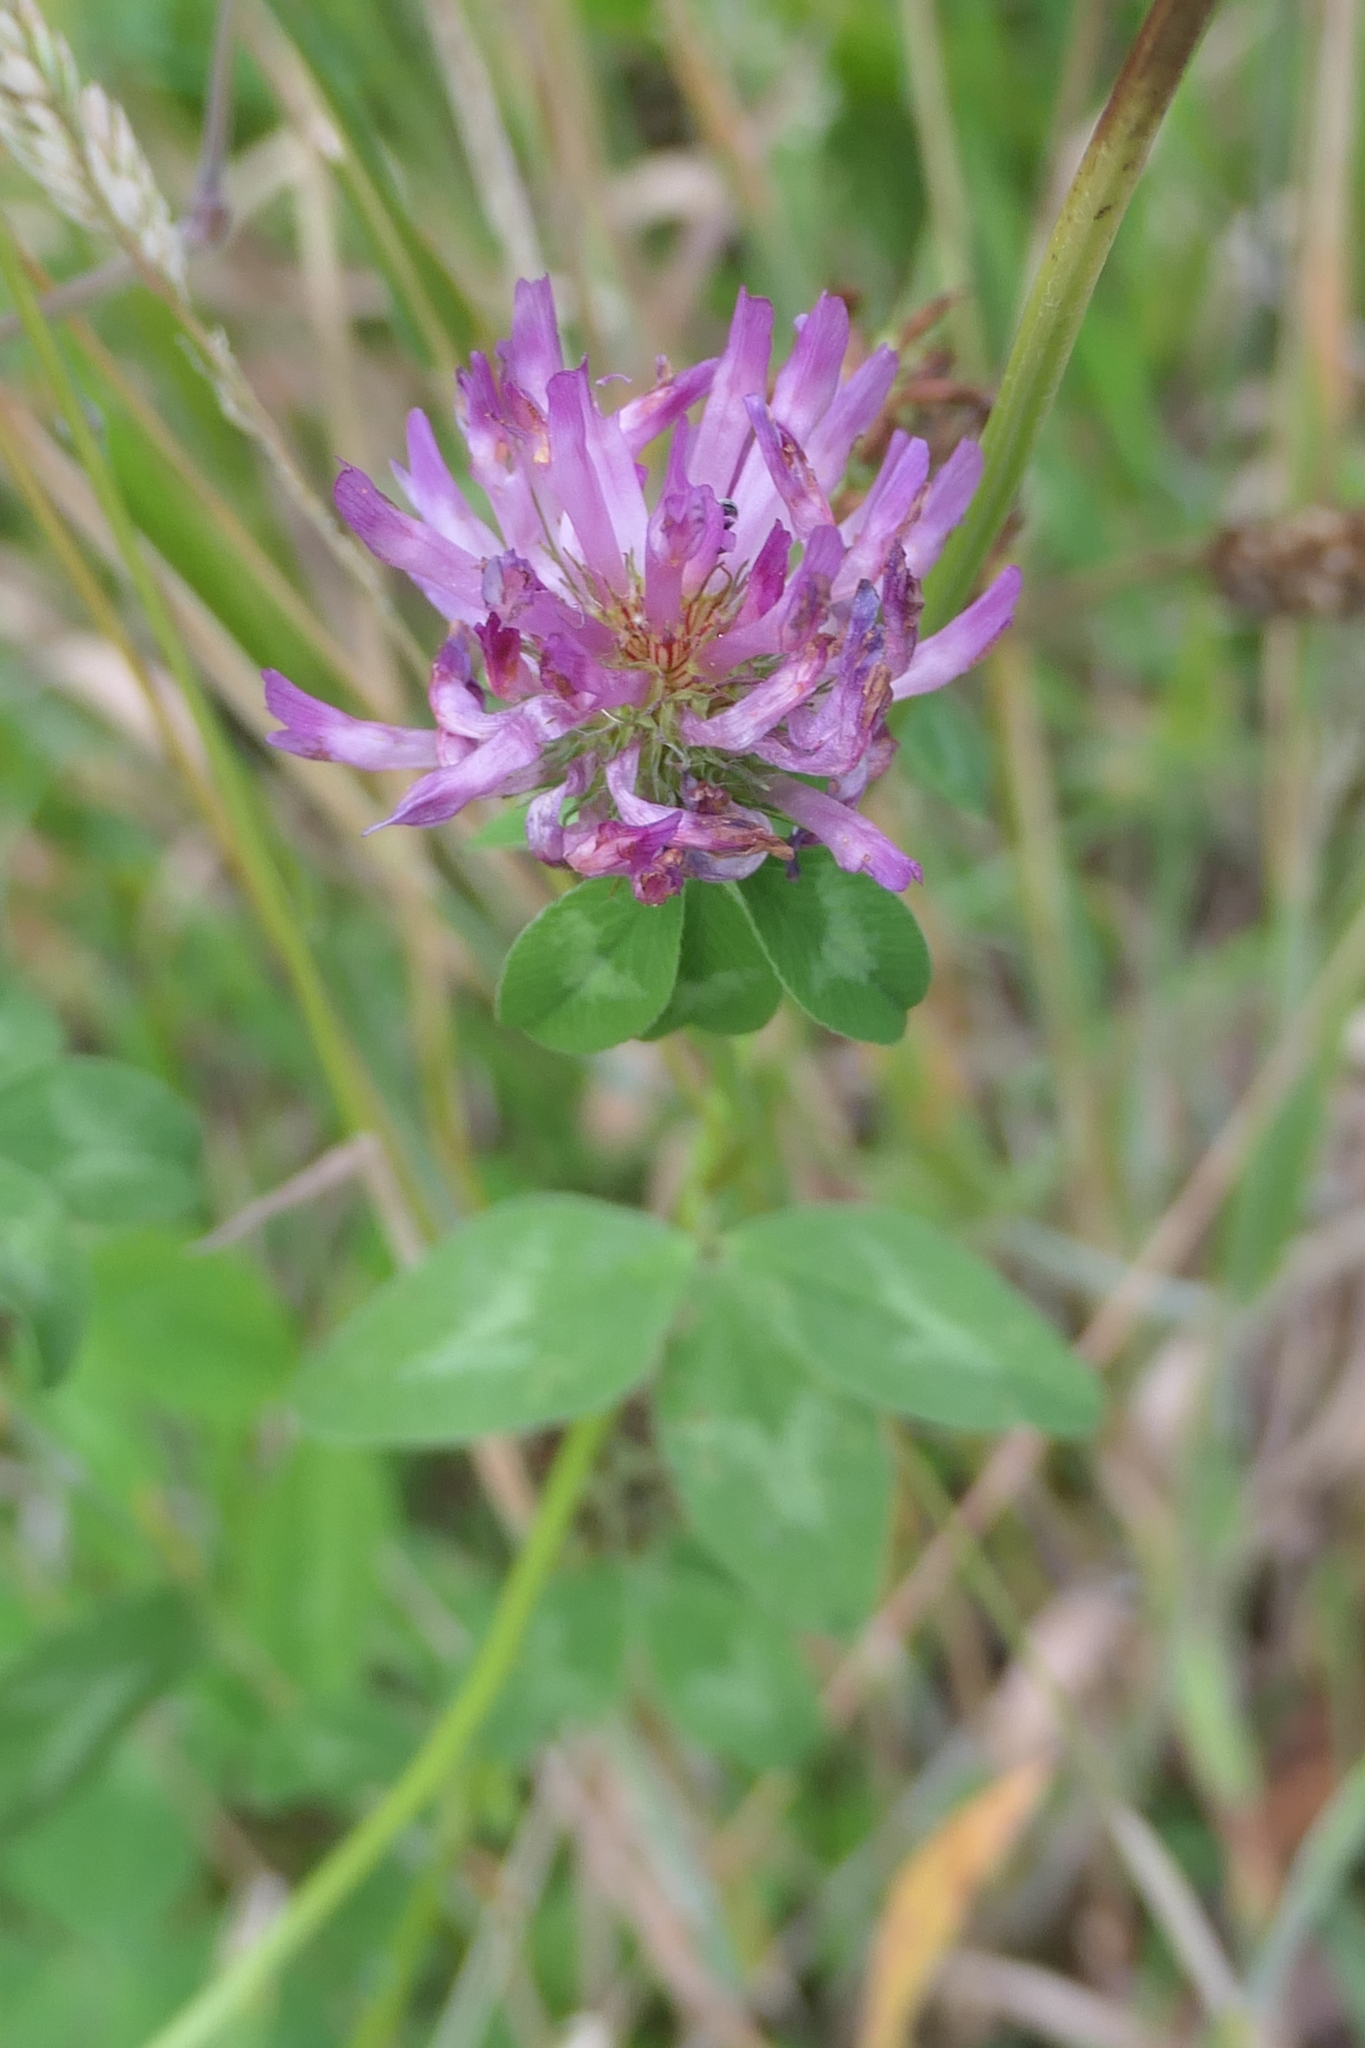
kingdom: Plantae
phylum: Tracheophyta
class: Magnoliopsida
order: Fabales
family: Fabaceae
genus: Trifolium
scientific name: Trifolium pratense
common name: Red clover
